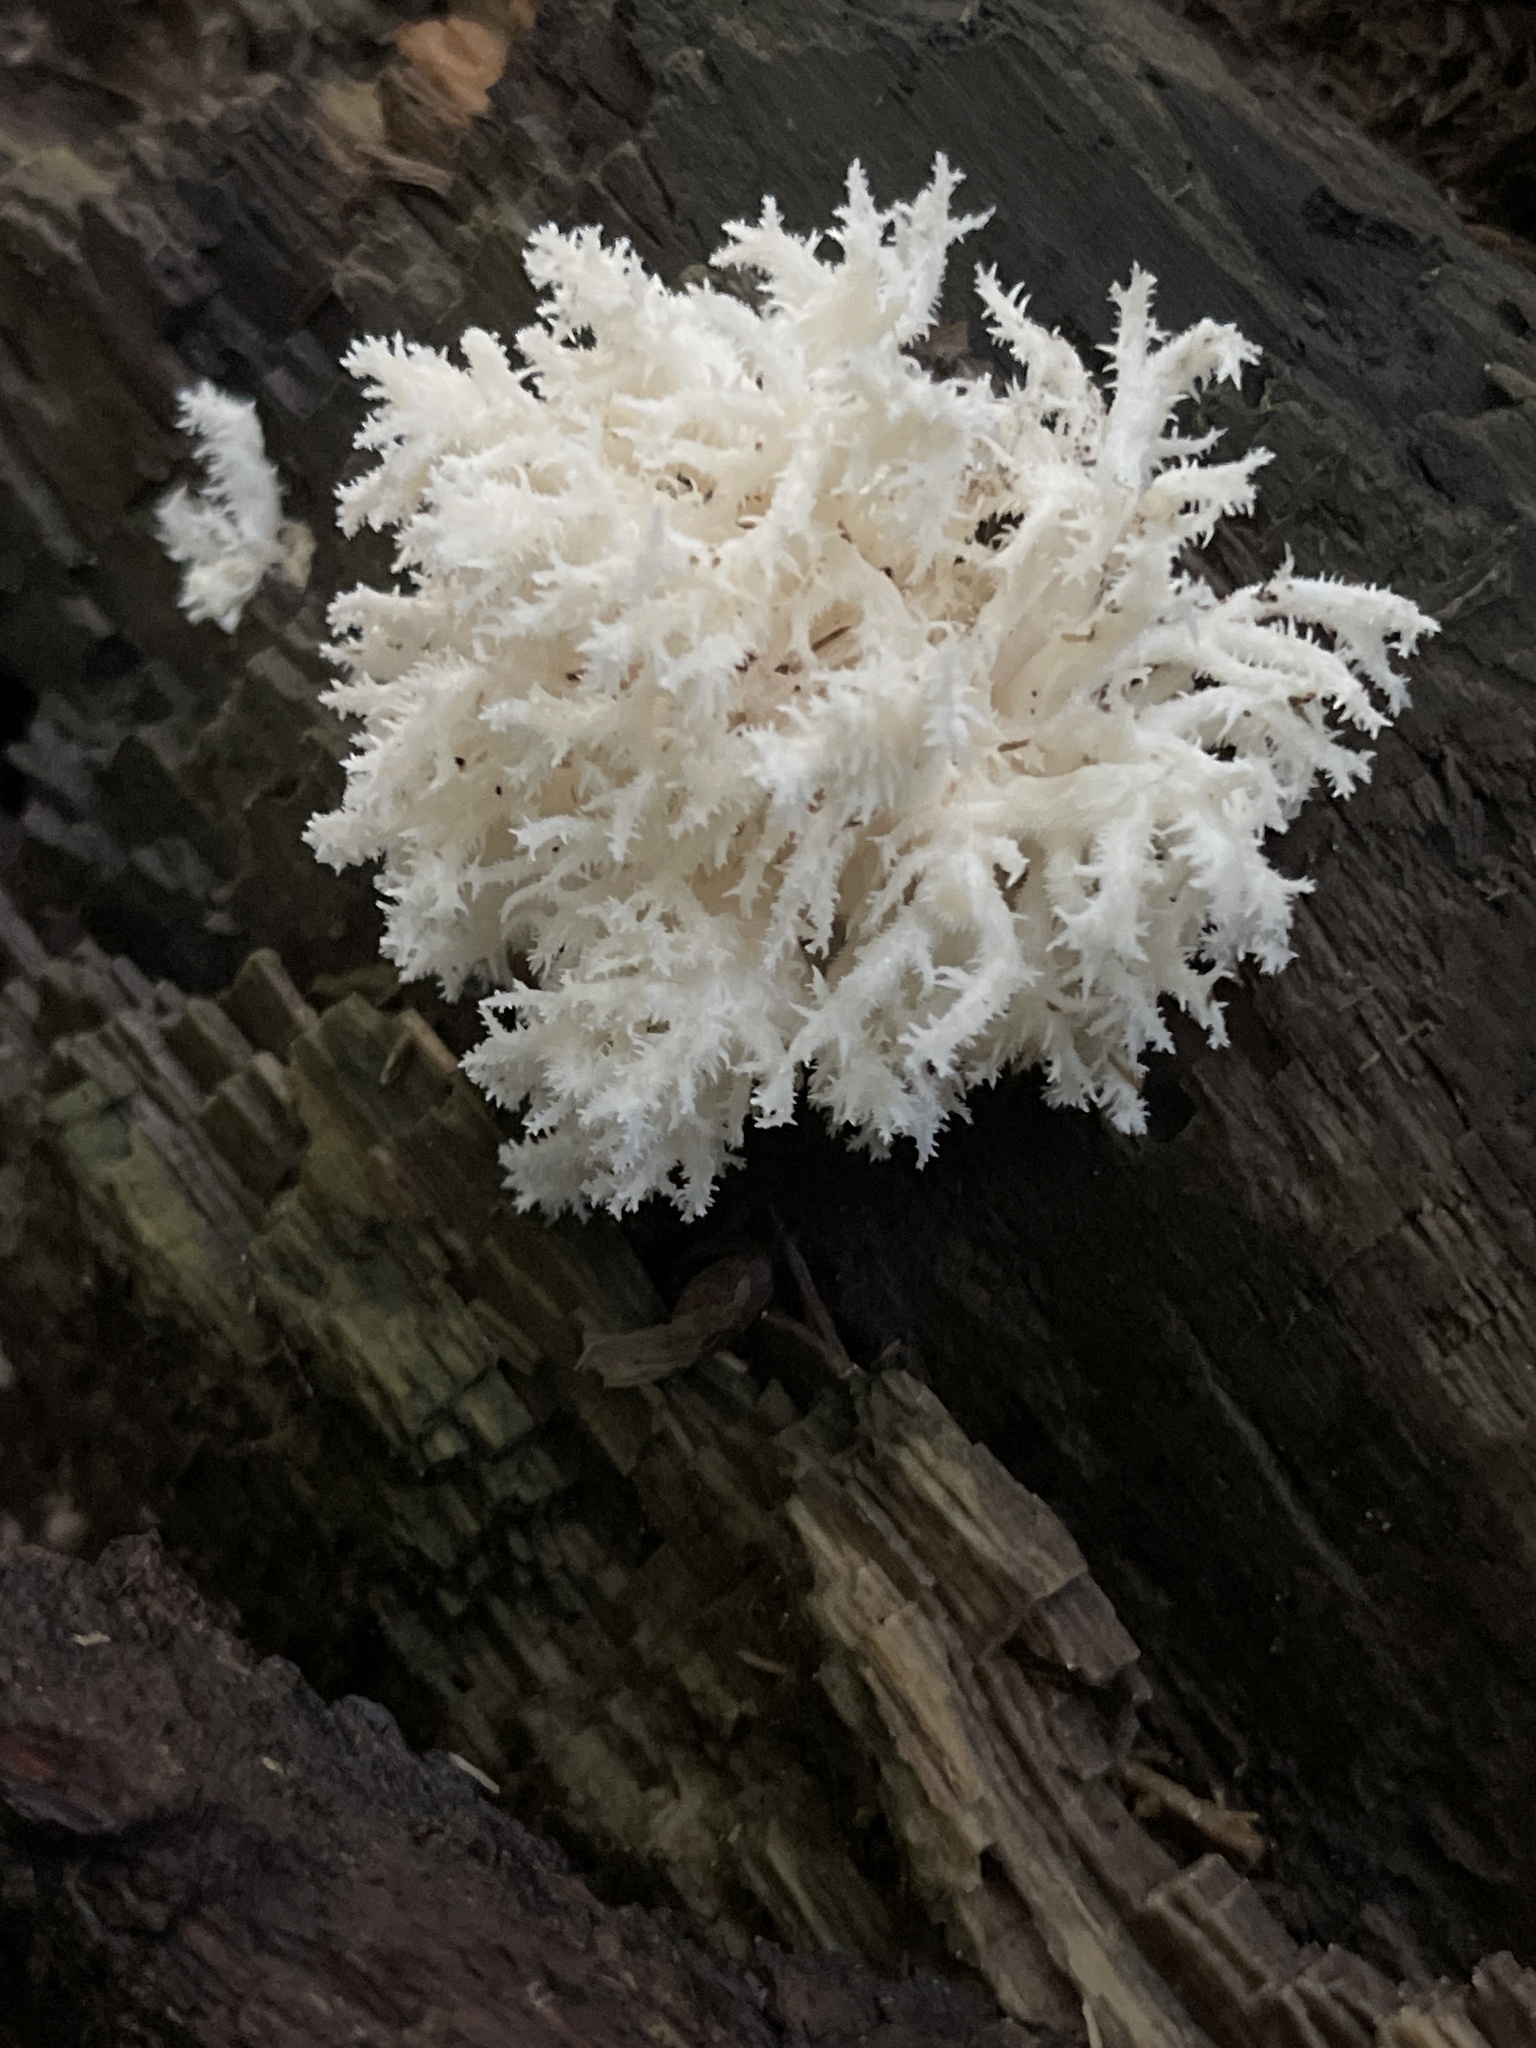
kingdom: Fungi
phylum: Basidiomycota
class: Agaricomycetes
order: Russulales
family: Hericiaceae
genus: Hericium
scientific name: Hericium coralloides
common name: Coral tooth
